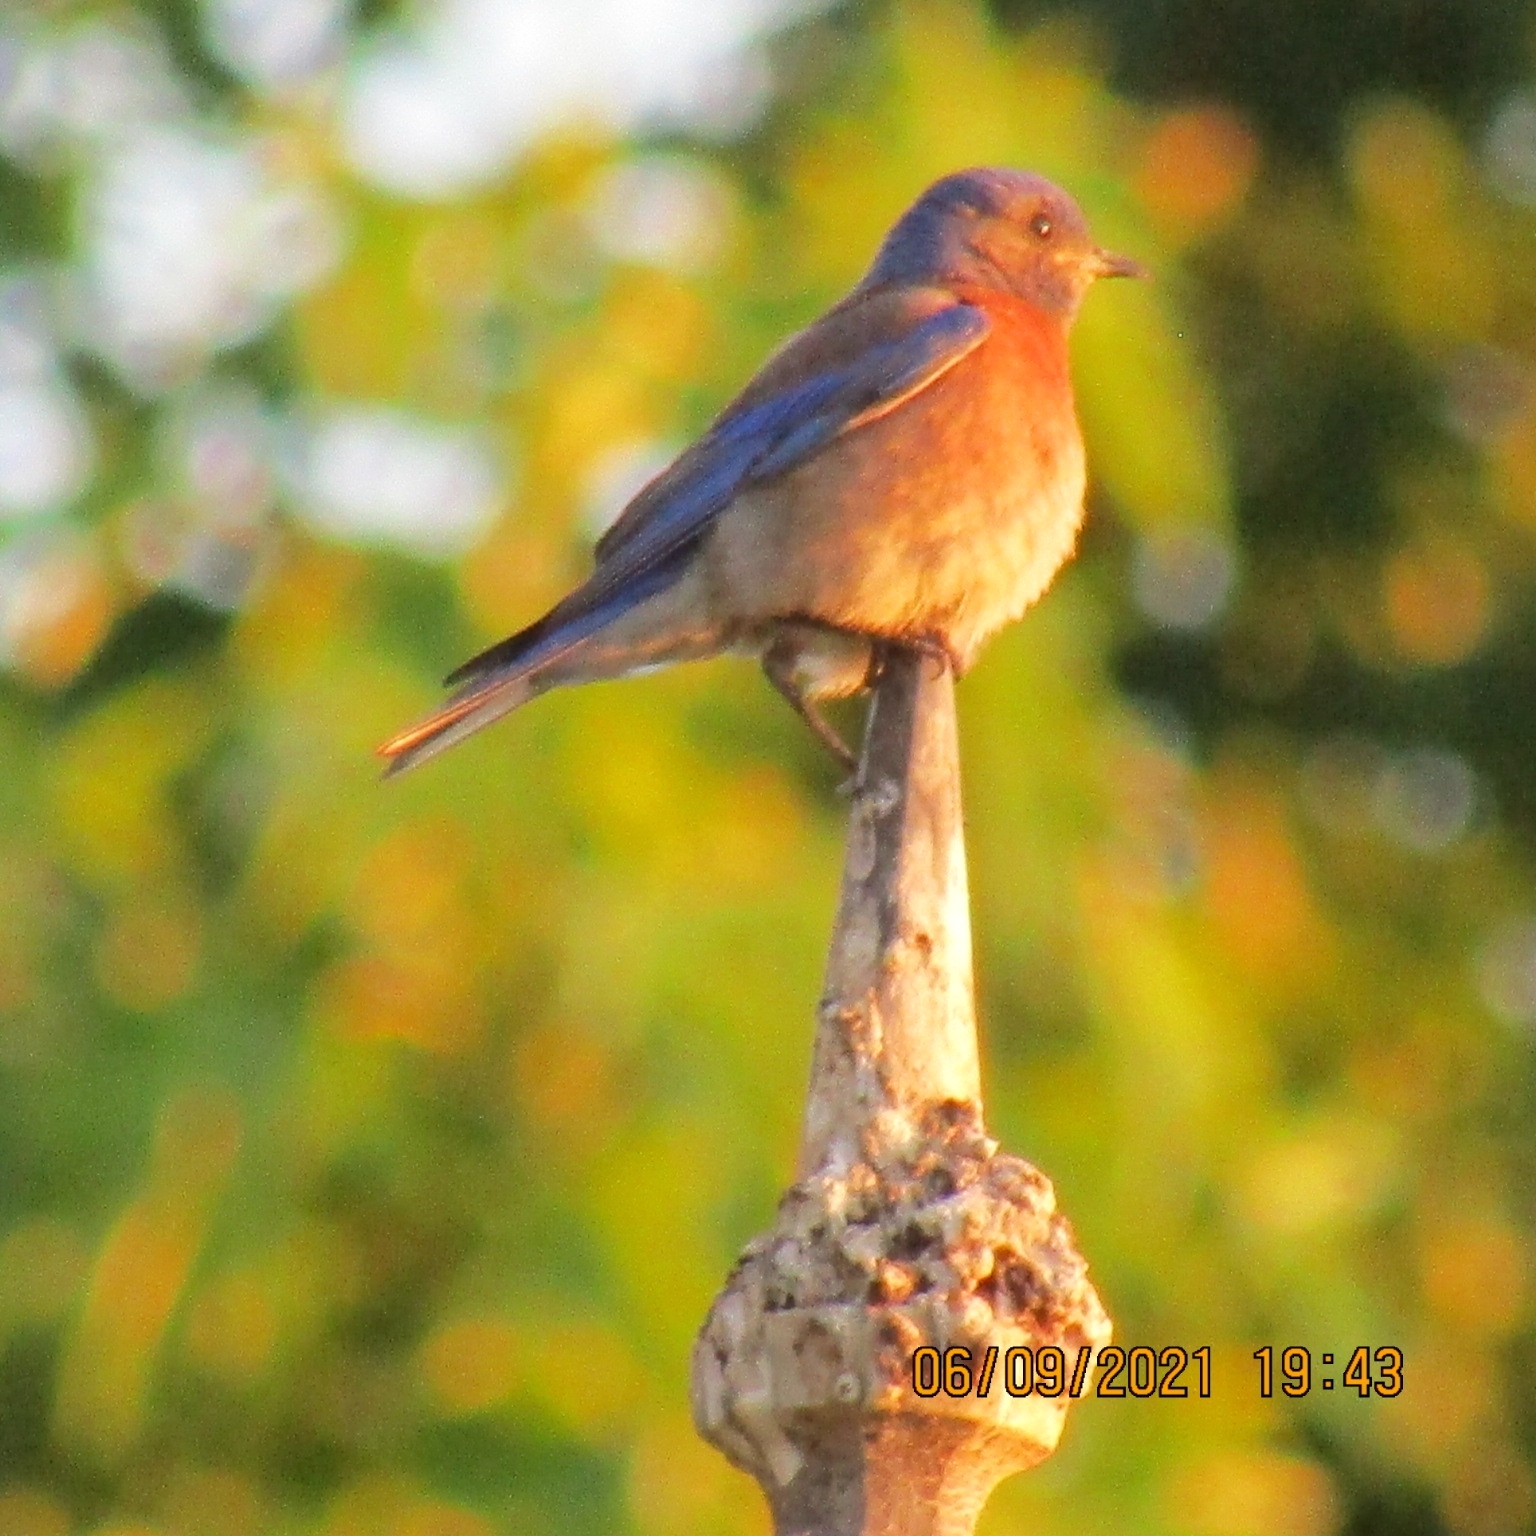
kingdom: Animalia
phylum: Chordata
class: Aves
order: Passeriformes
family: Turdidae
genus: Sialia
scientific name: Sialia mexicana
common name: Western bluebird
